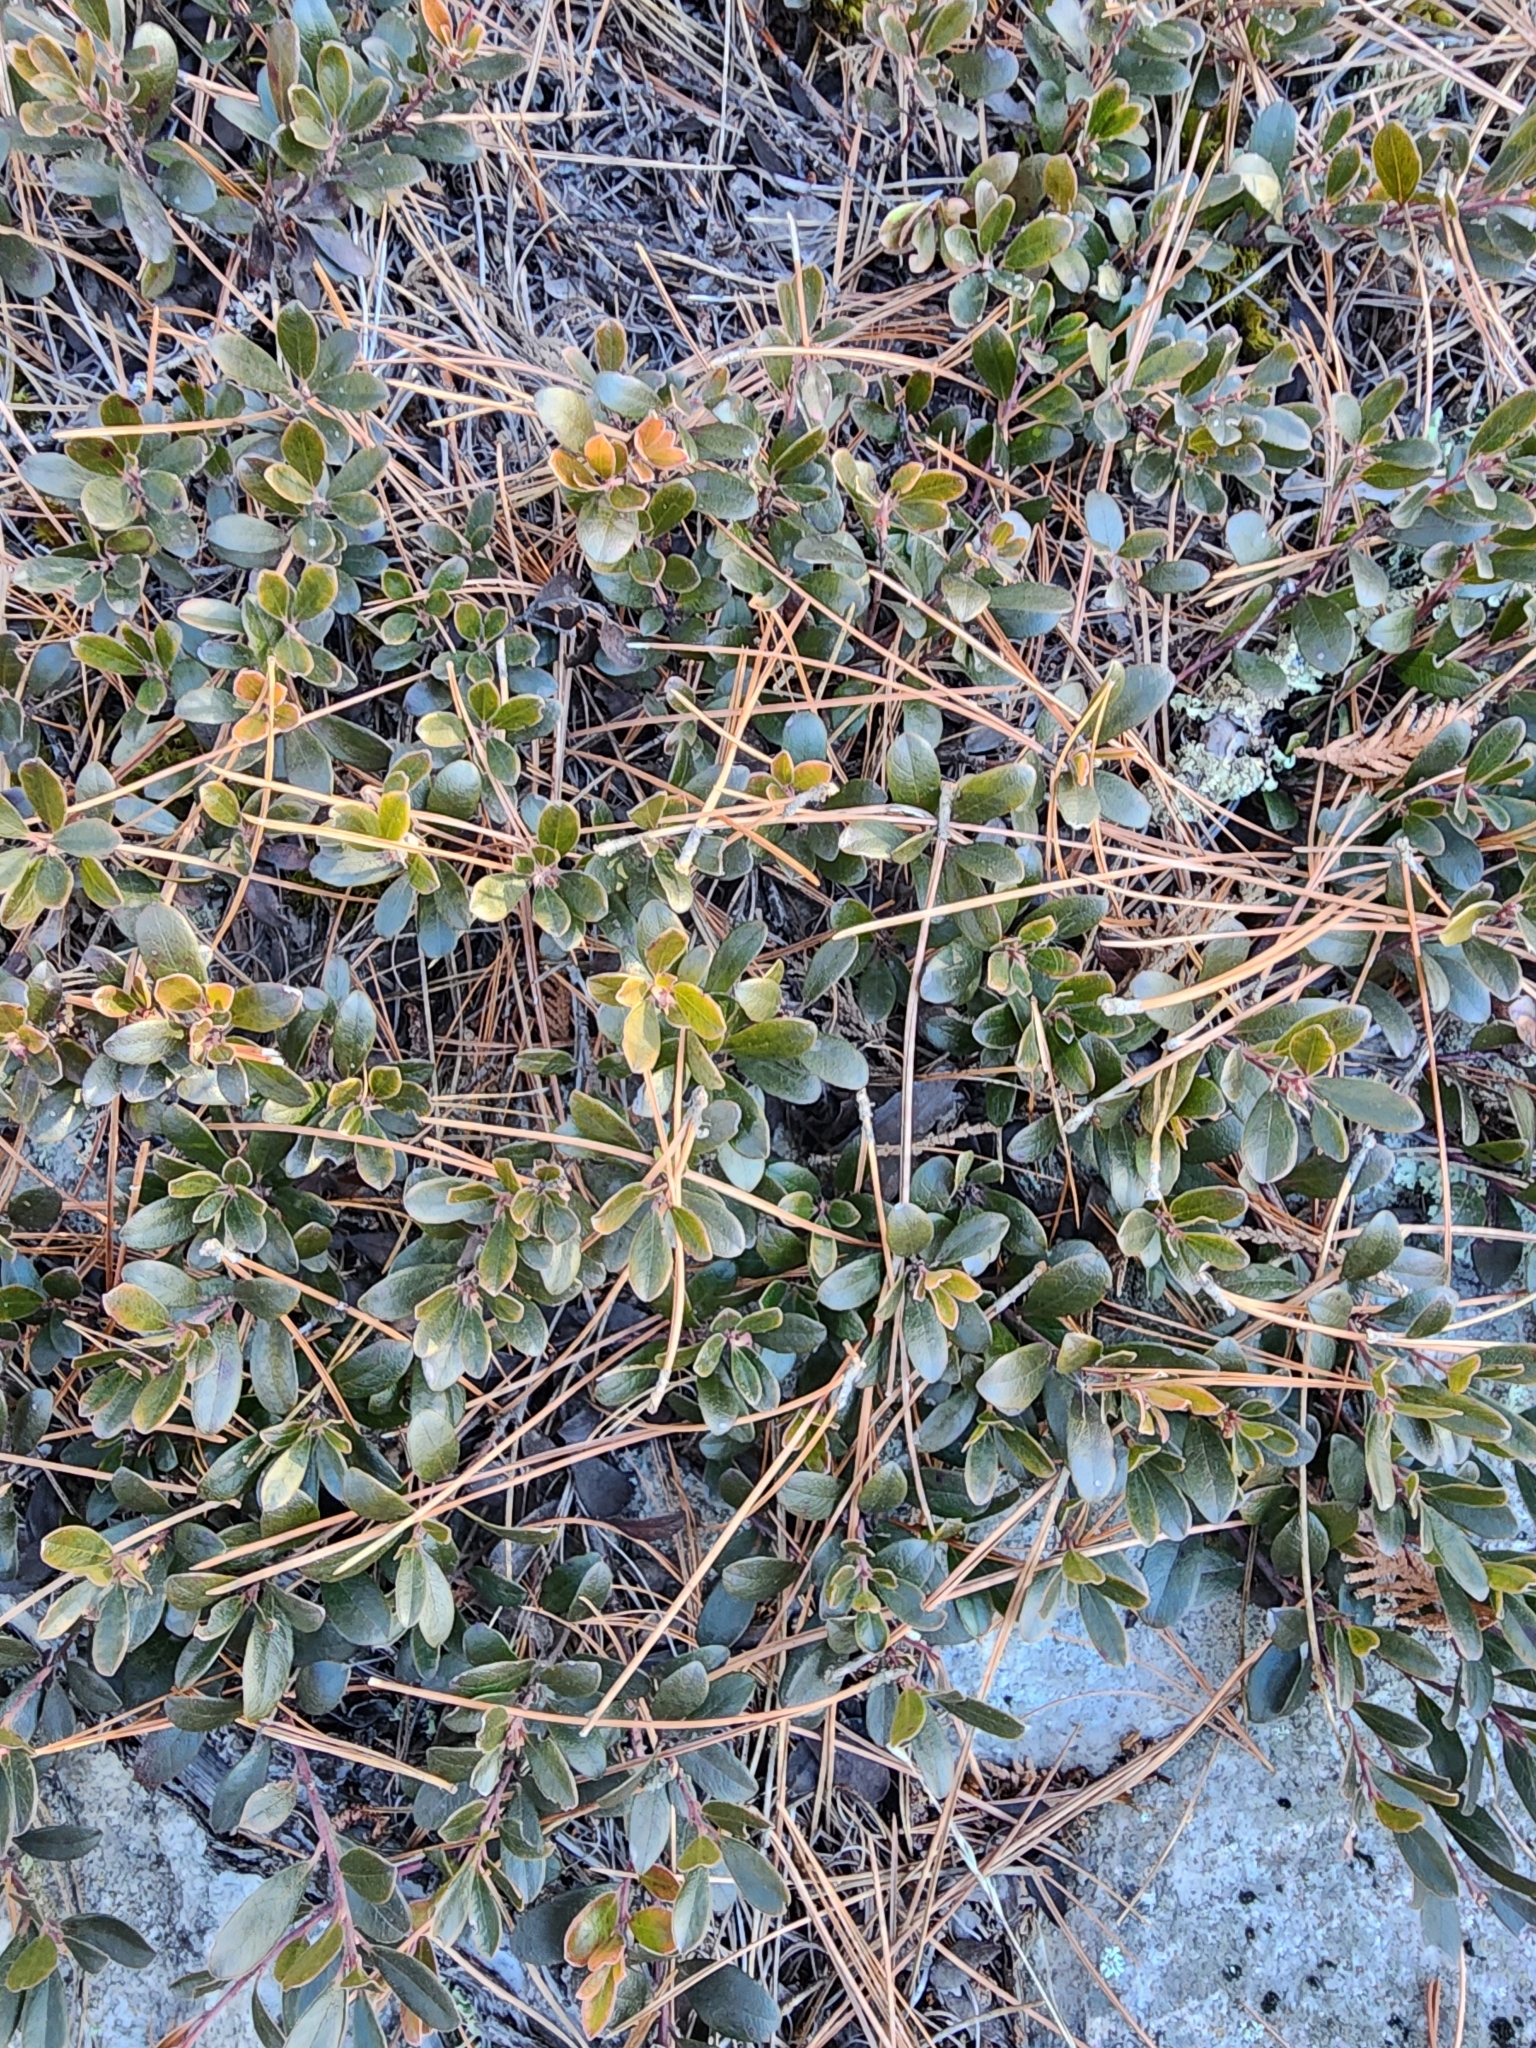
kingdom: Plantae
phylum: Tracheophyta
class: Magnoliopsida
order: Ericales
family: Ericaceae
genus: Arctostaphylos
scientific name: Arctostaphylos uva-ursi
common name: Bearberry
